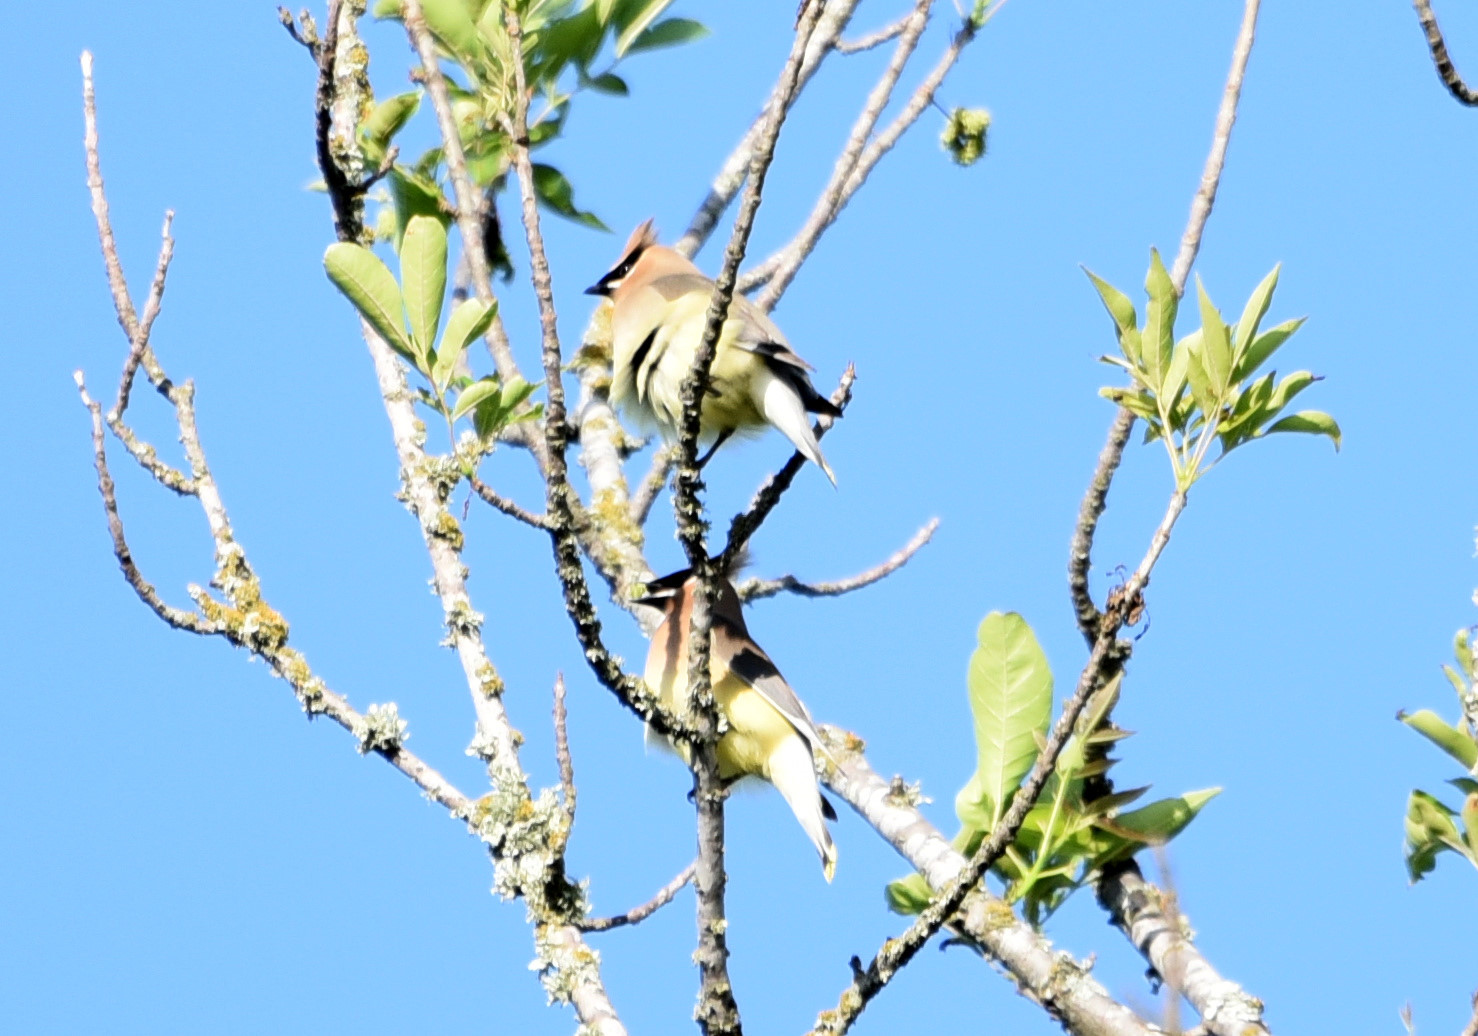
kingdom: Animalia
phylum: Chordata
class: Aves
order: Passeriformes
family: Bombycillidae
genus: Bombycilla
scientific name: Bombycilla cedrorum
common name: Cedar waxwing
